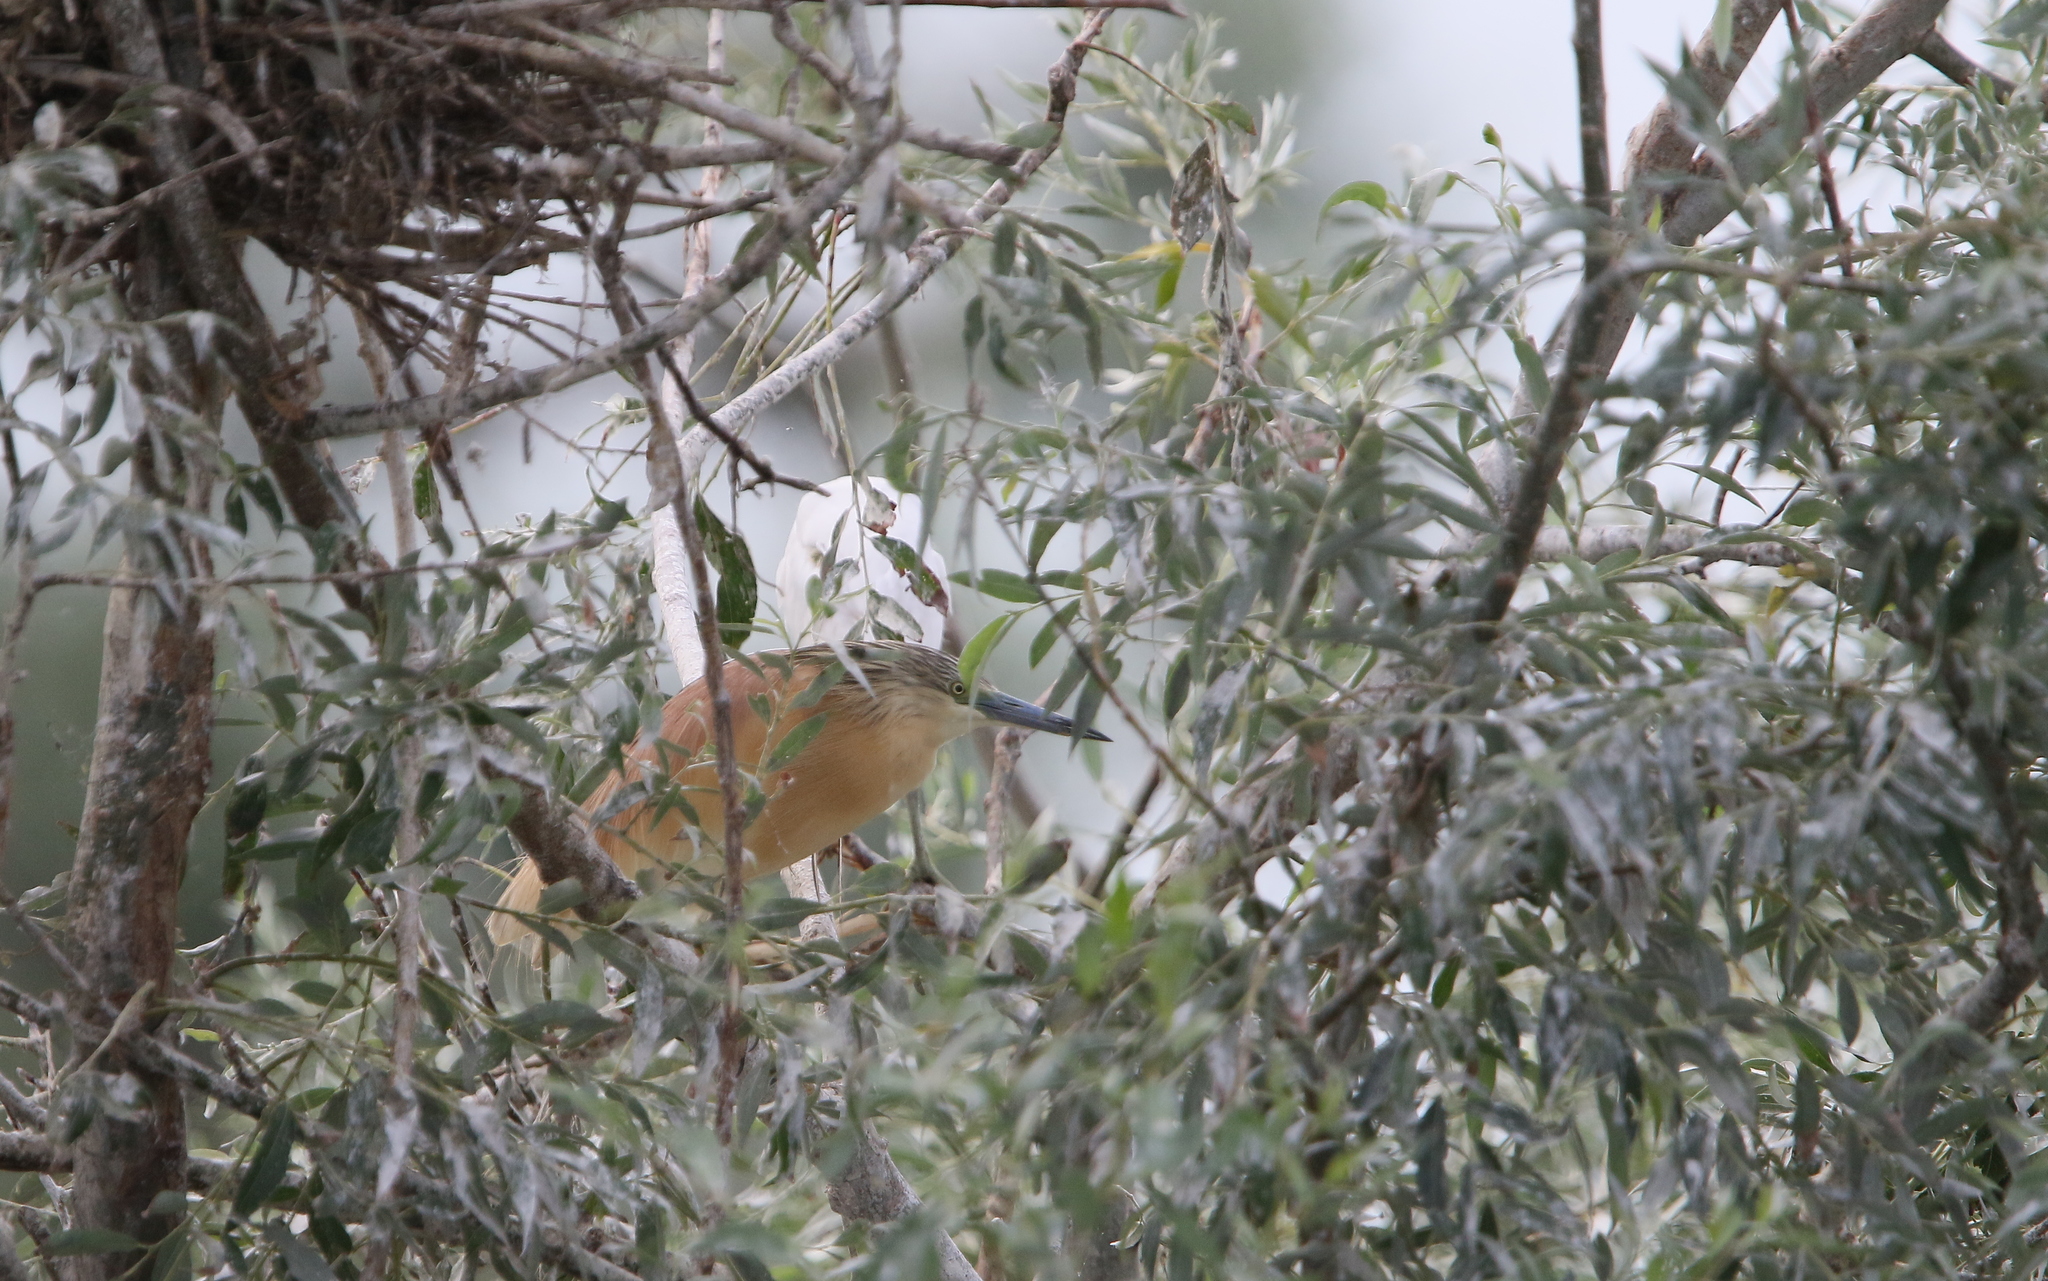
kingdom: Animalia
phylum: Chordata
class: Aves
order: Pelecaniformes
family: Ardeidae
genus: Ardeola
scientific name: Ardeola ralloides
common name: Squacco heron
